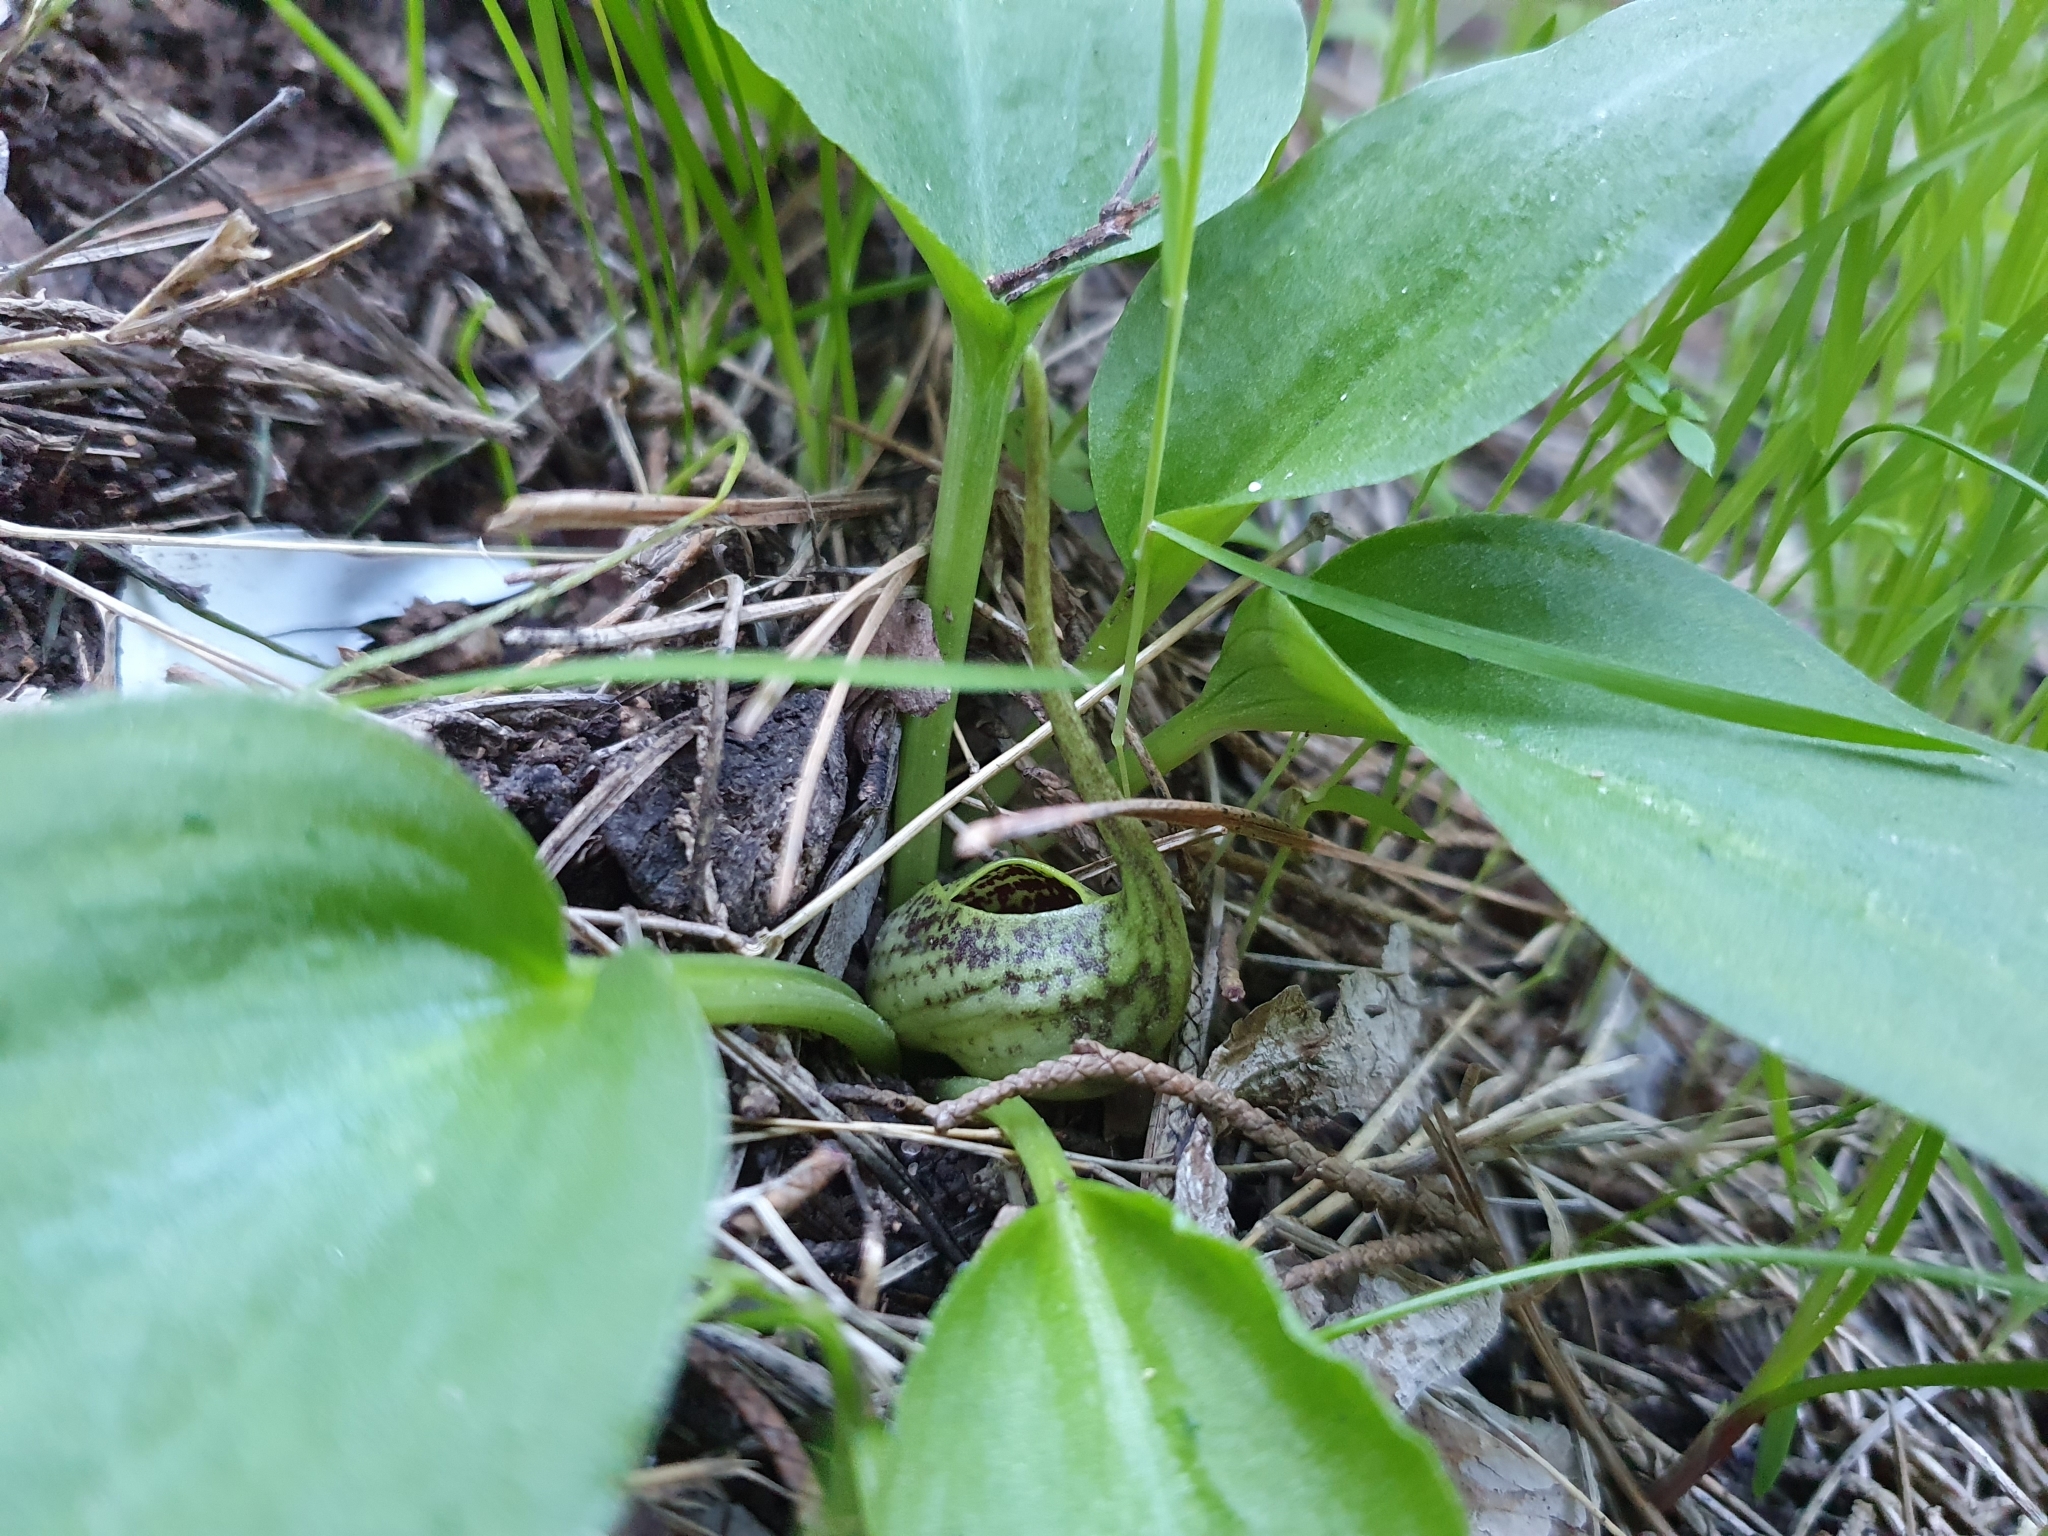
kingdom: Plantae
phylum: Tracheophyta
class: Liliopsida
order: Alismatales
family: Araceae
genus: Ambrosina
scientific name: Ambrosina bassii
